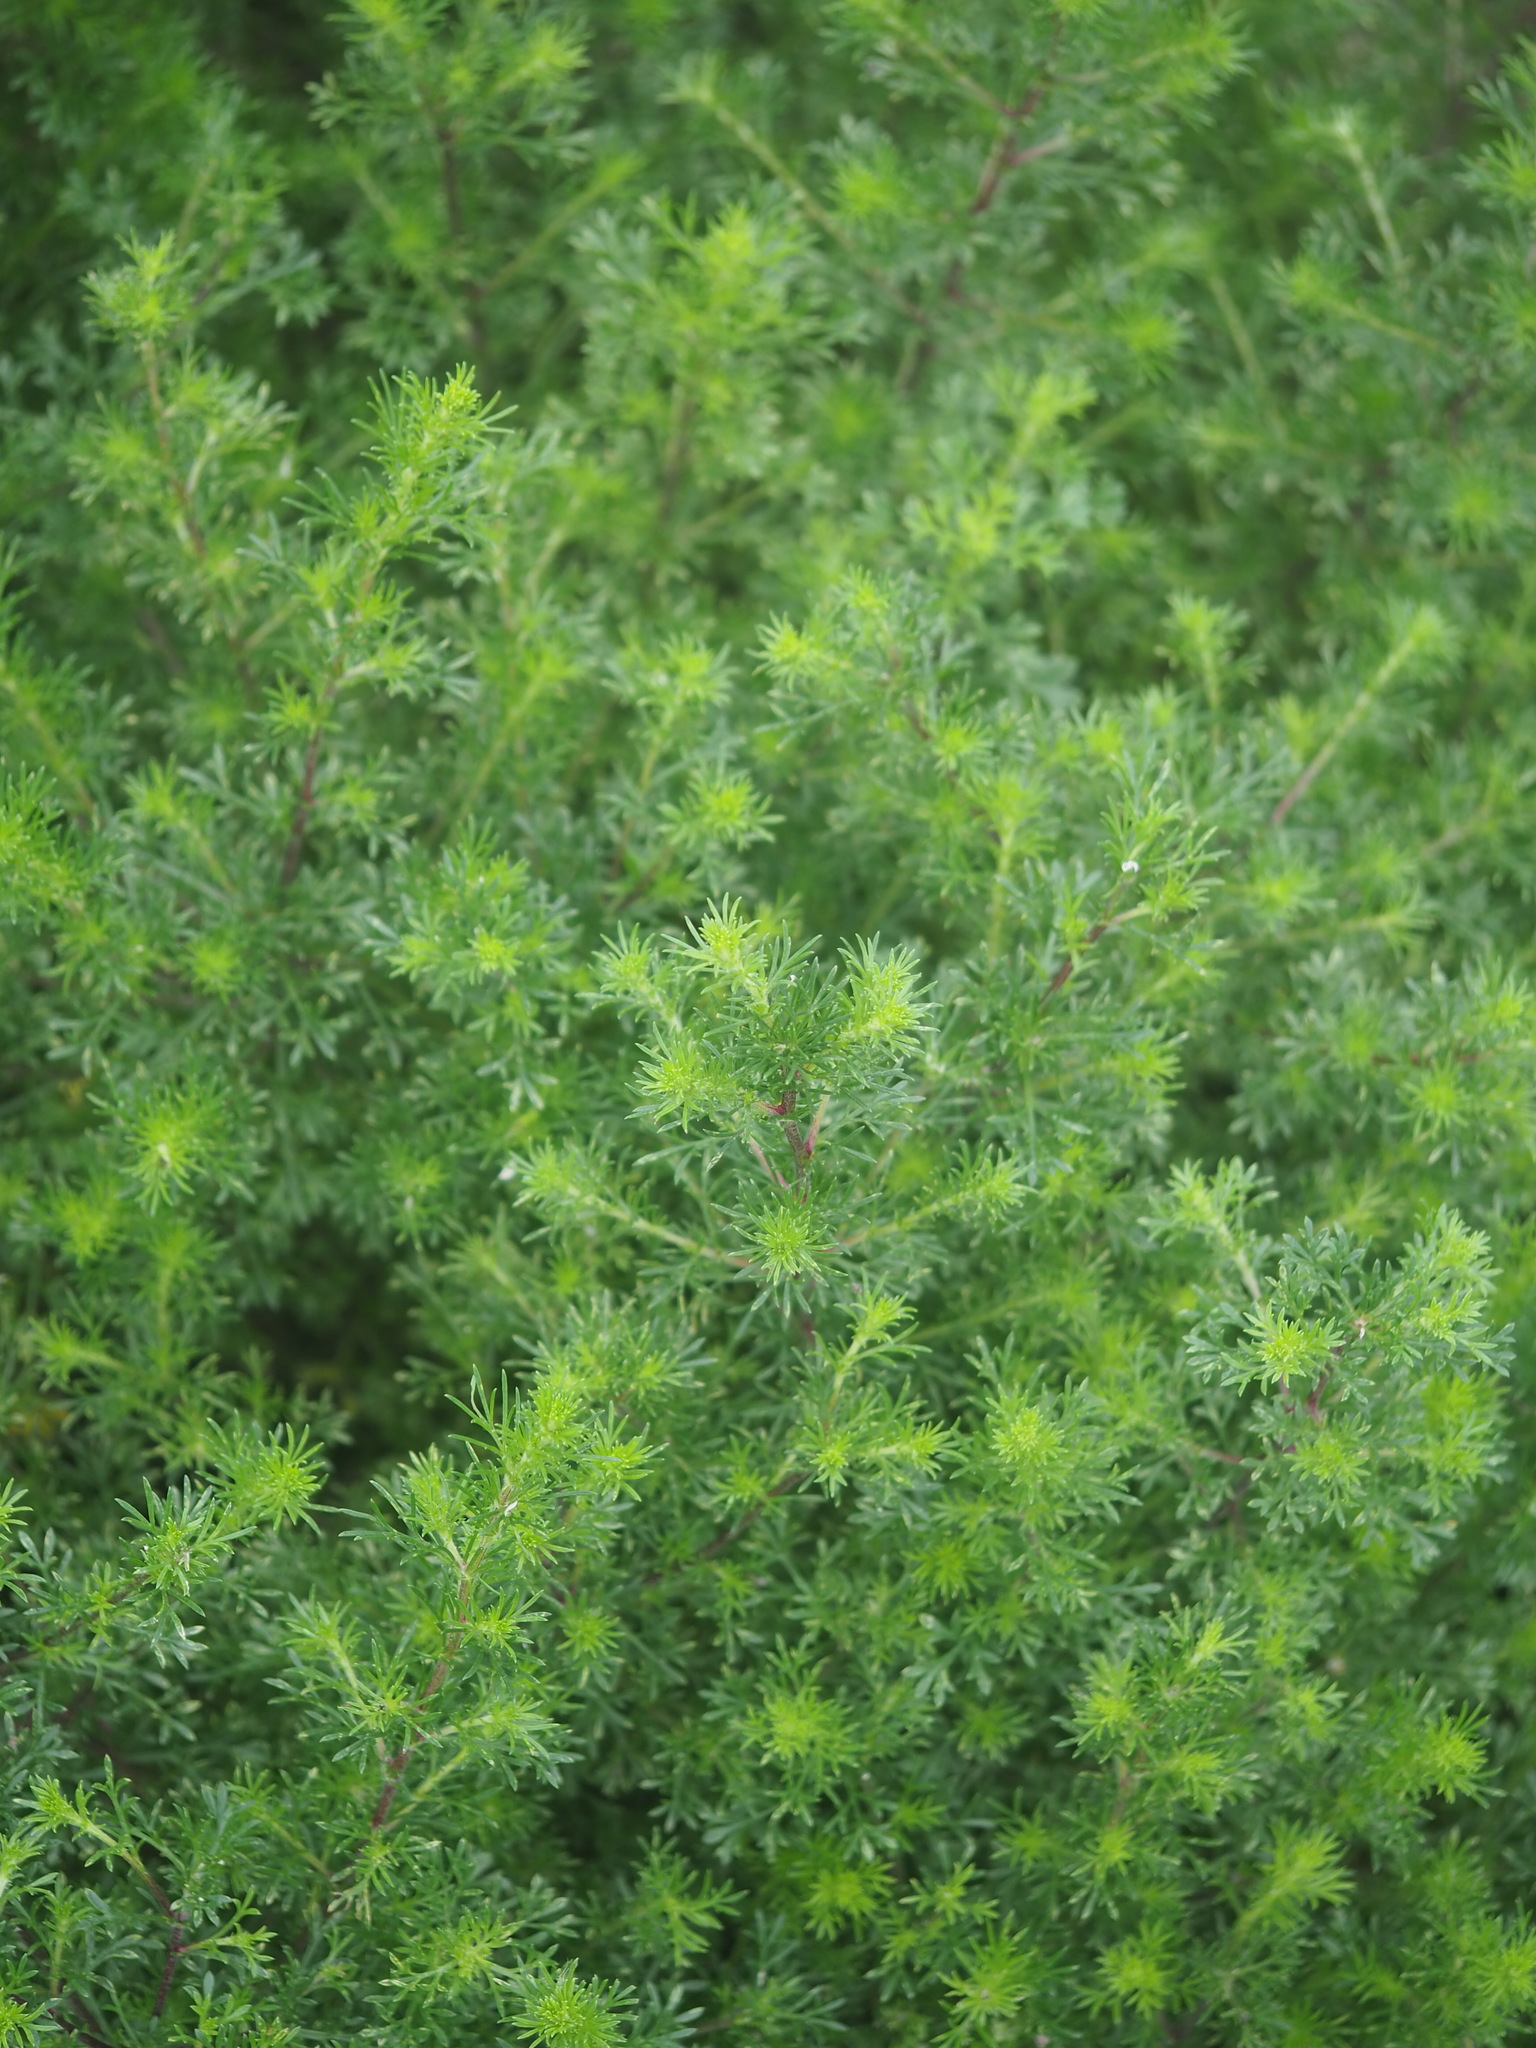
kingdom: Plantae
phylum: Tracheophyta
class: Magnoliopsida
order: Asterales
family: Asteraceae
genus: Artemisia
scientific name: Artemisia capillaris
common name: Yin-chen wormwood
